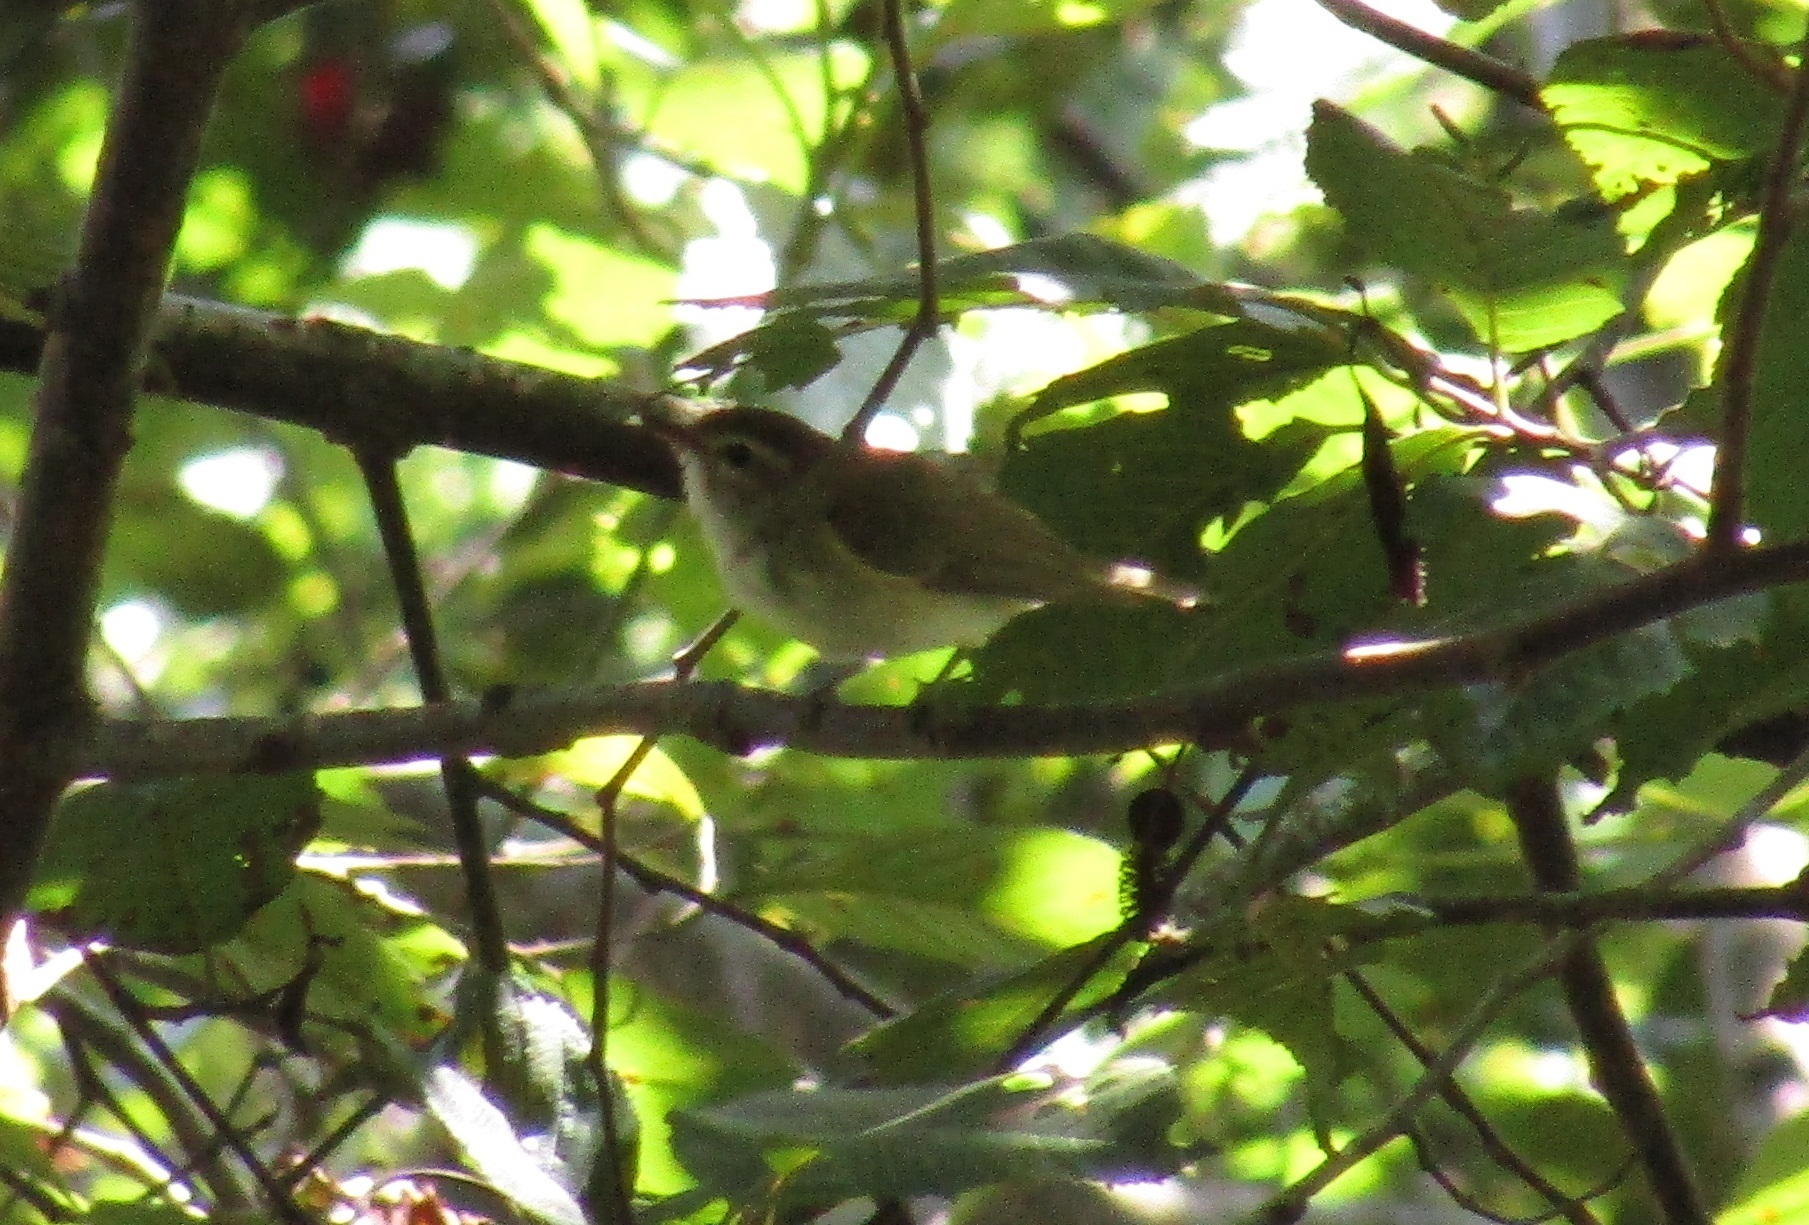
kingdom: Animalia
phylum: Chordata
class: Aves
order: Passeriformes
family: Vireonidae
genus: Vireo
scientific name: Vireo leucophrys
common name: Brown-capped vireo
